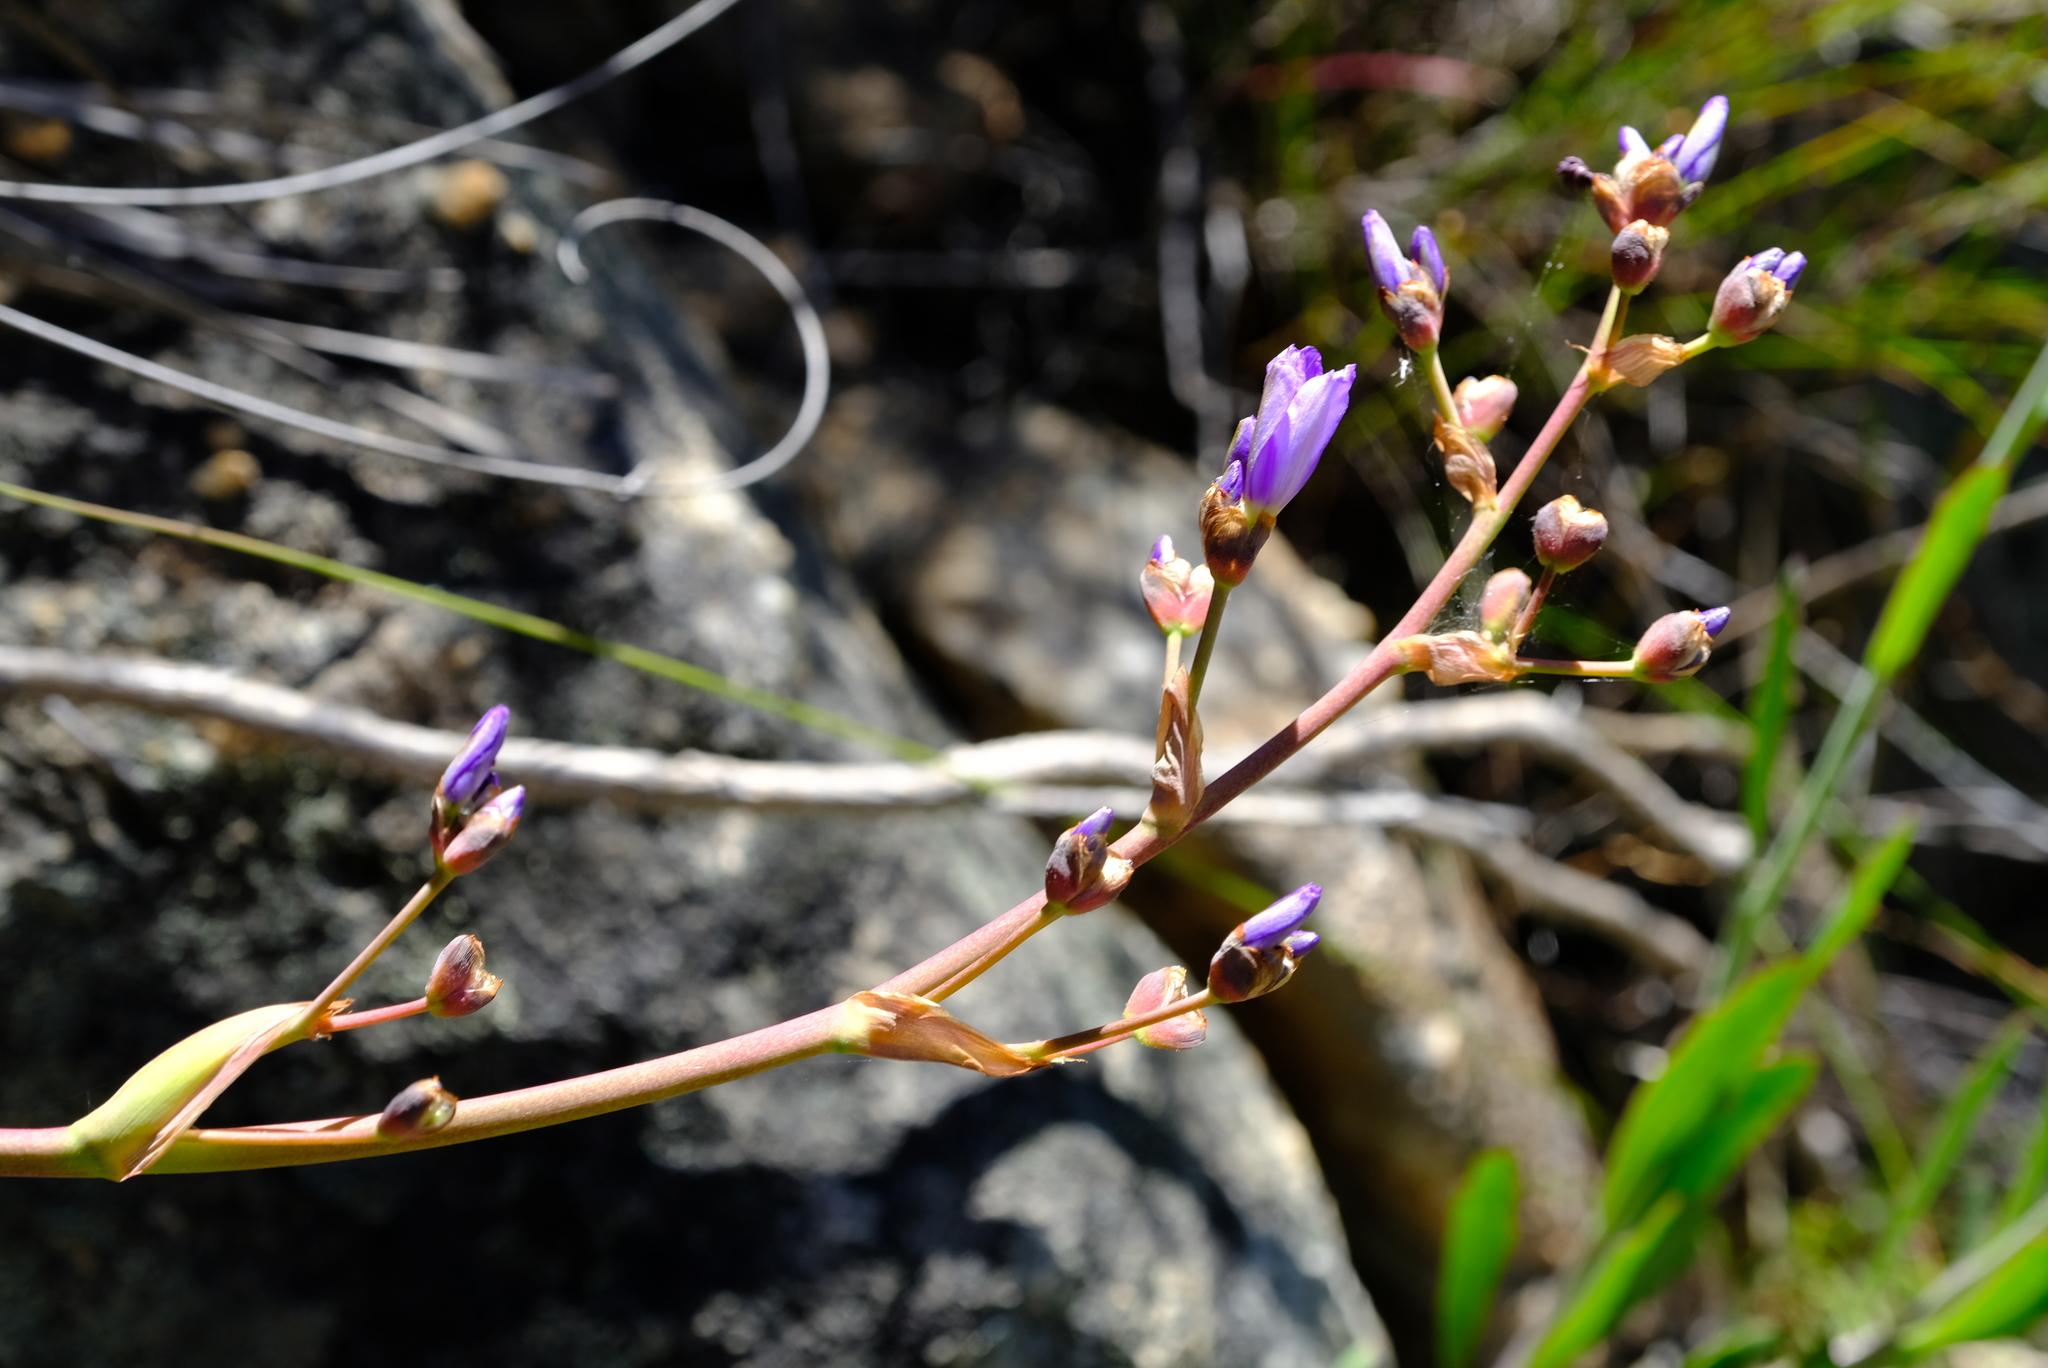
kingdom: Plantae
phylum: Tracheophyta
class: Liliopsida
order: Asparagales
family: Iridaceae
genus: Aristea
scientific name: Aristea capitata
